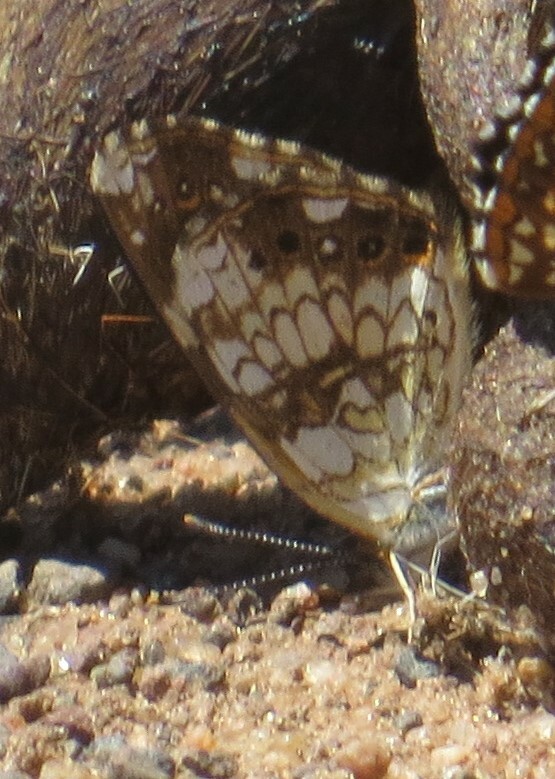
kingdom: Animalia
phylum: Arthropoda
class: Insecta
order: Lepidoptera
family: Nymphalidae
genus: Chlosyne
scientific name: Chlosyne nycteis
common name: Silvery checkerspot
